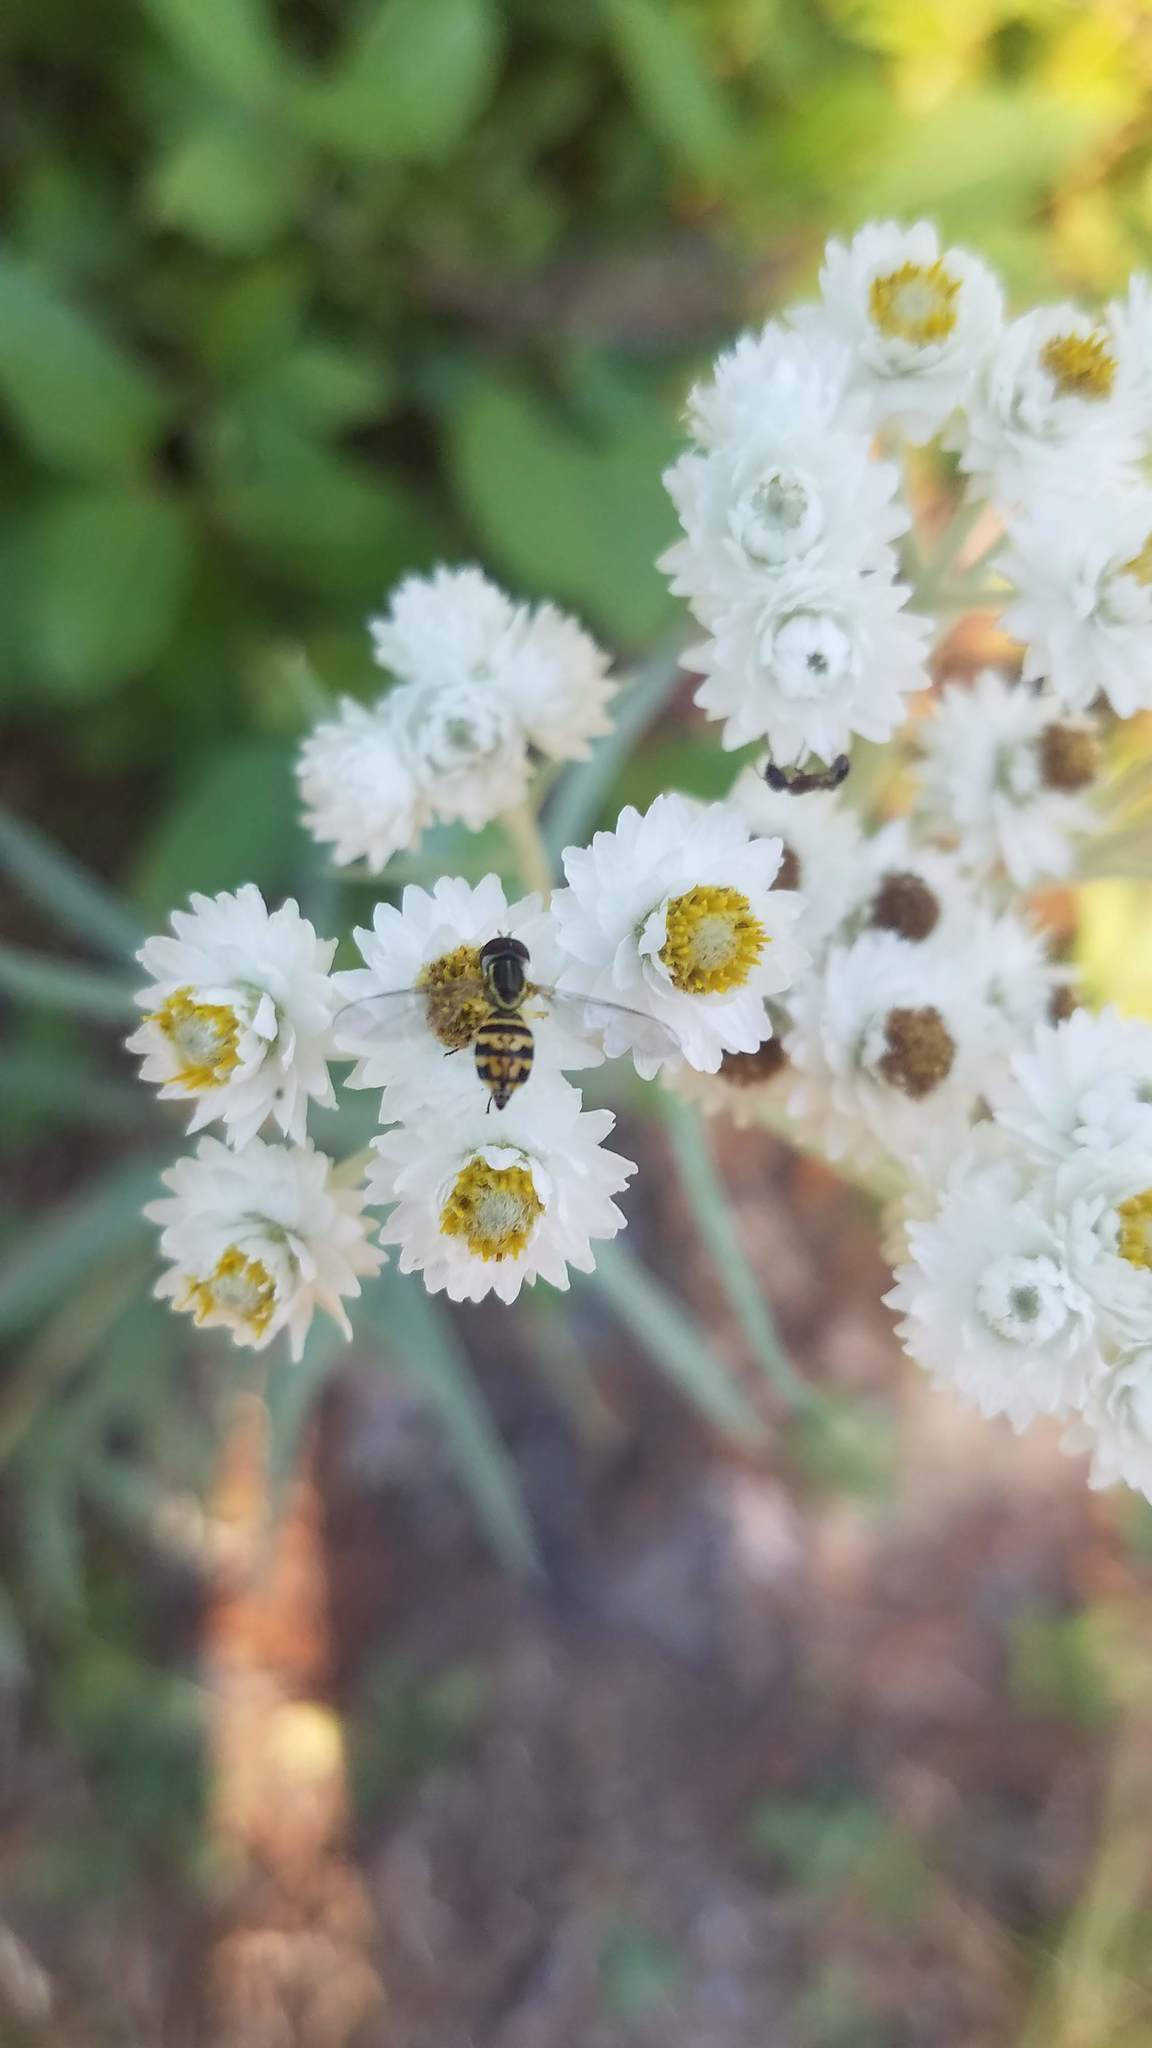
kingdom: Animalia
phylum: Arthropoda
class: Insecta
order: Diptera
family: Syrphidae
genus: Toxomerus
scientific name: Toxomerus geminatus
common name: Eastern calligrapher
